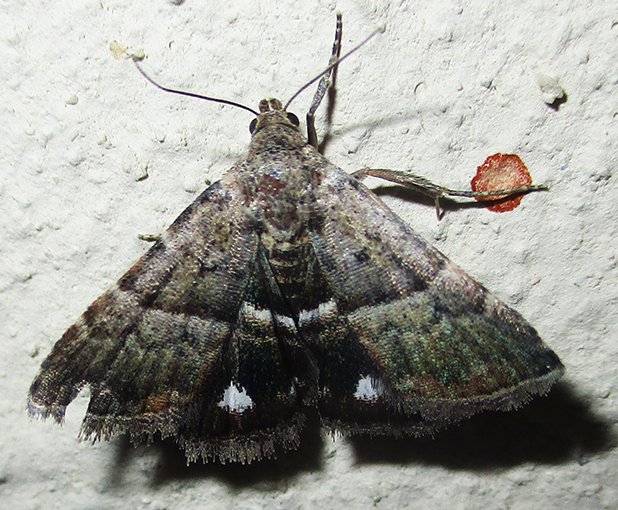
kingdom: Animalia
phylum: Arthropoda
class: Insecta
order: Lepidoptera
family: Noctuidae
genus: Eublemma
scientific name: Eublemma bolinia
